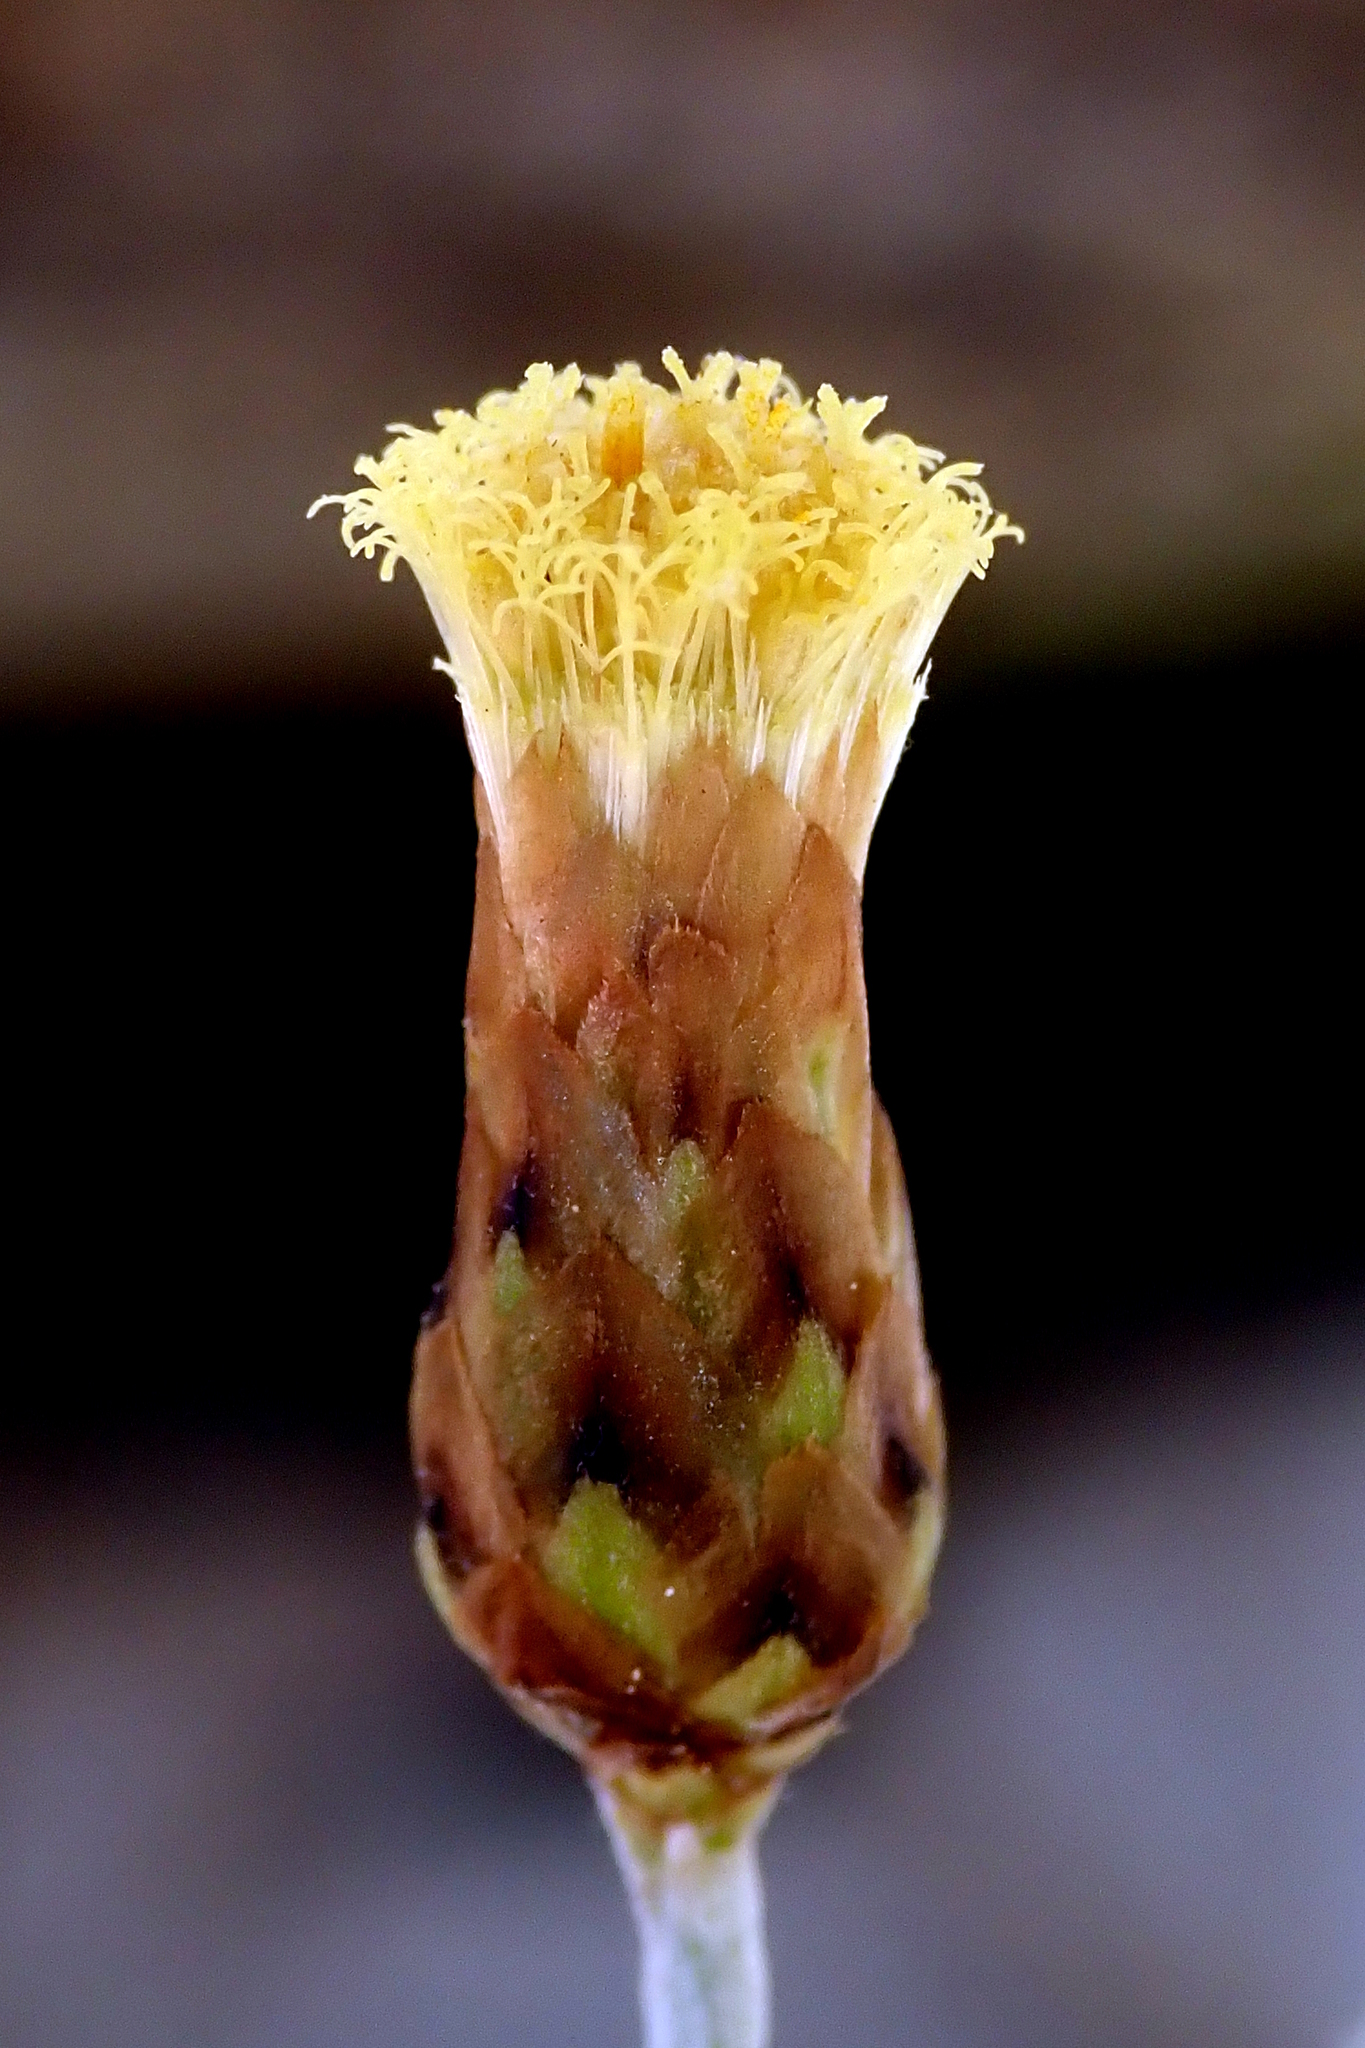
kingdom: Plantae
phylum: Tracheophyta
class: Magnoliopsida
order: Asterales
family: Asteraceae
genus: Phagnalon
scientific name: Phagnalon sordidum
